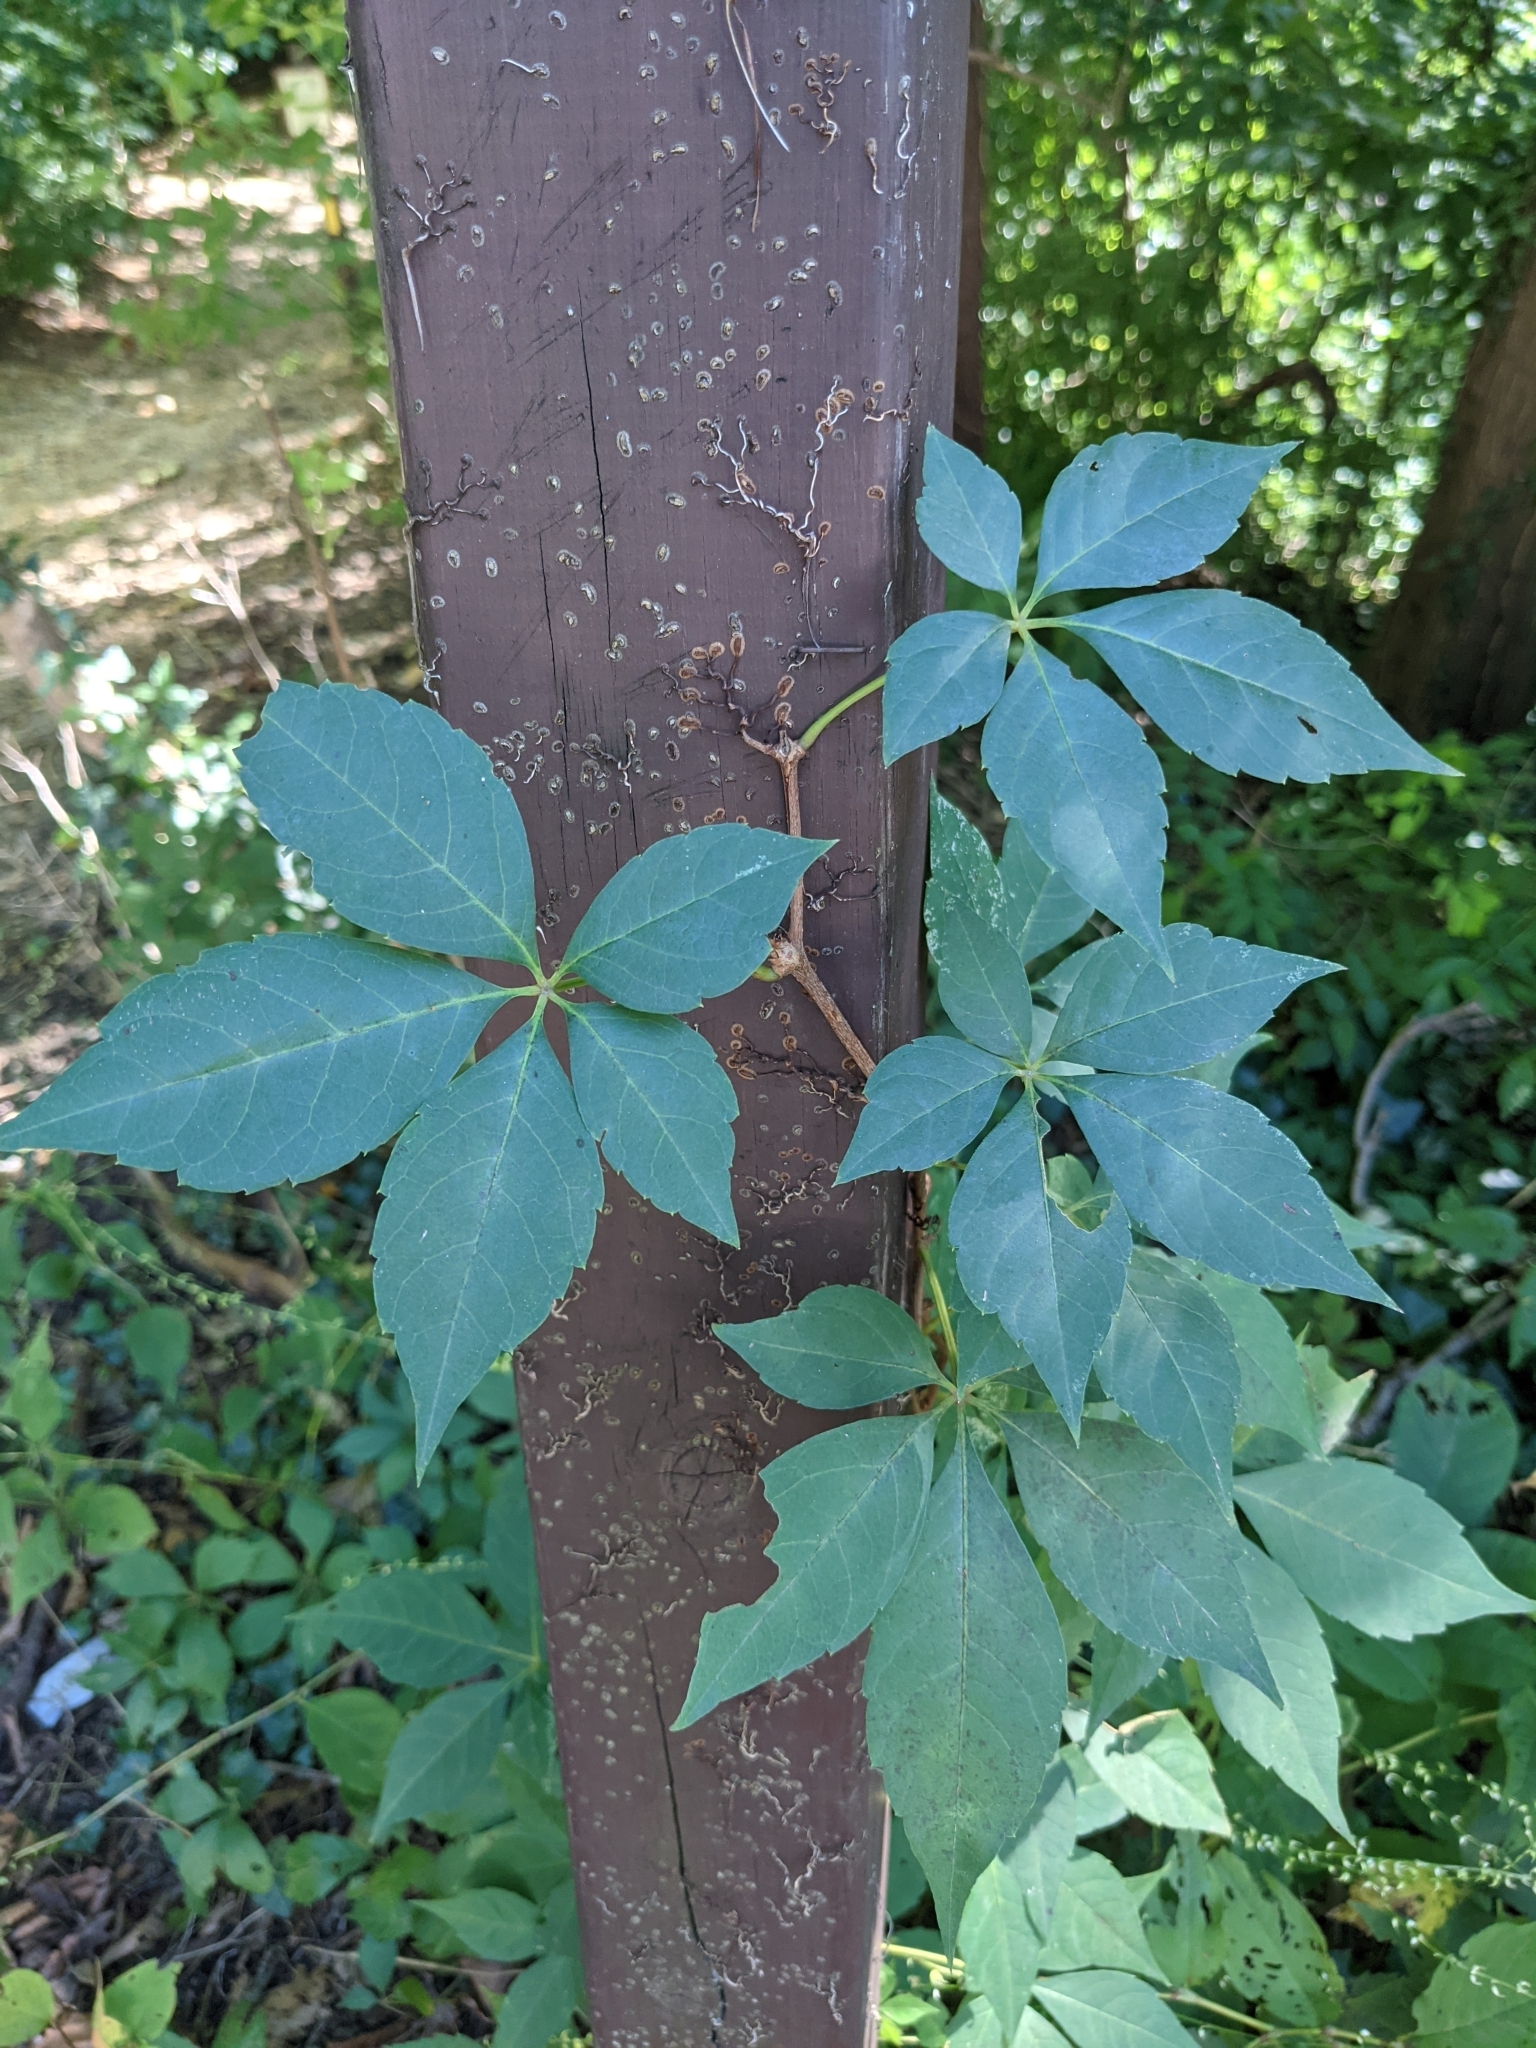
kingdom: Plantae
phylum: Tracheophyta
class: Magnoliopsida
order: Vitales
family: Vitaceae
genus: Parthenocissus
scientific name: Parthenocissus quinquefolia
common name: Virginia-creeper
